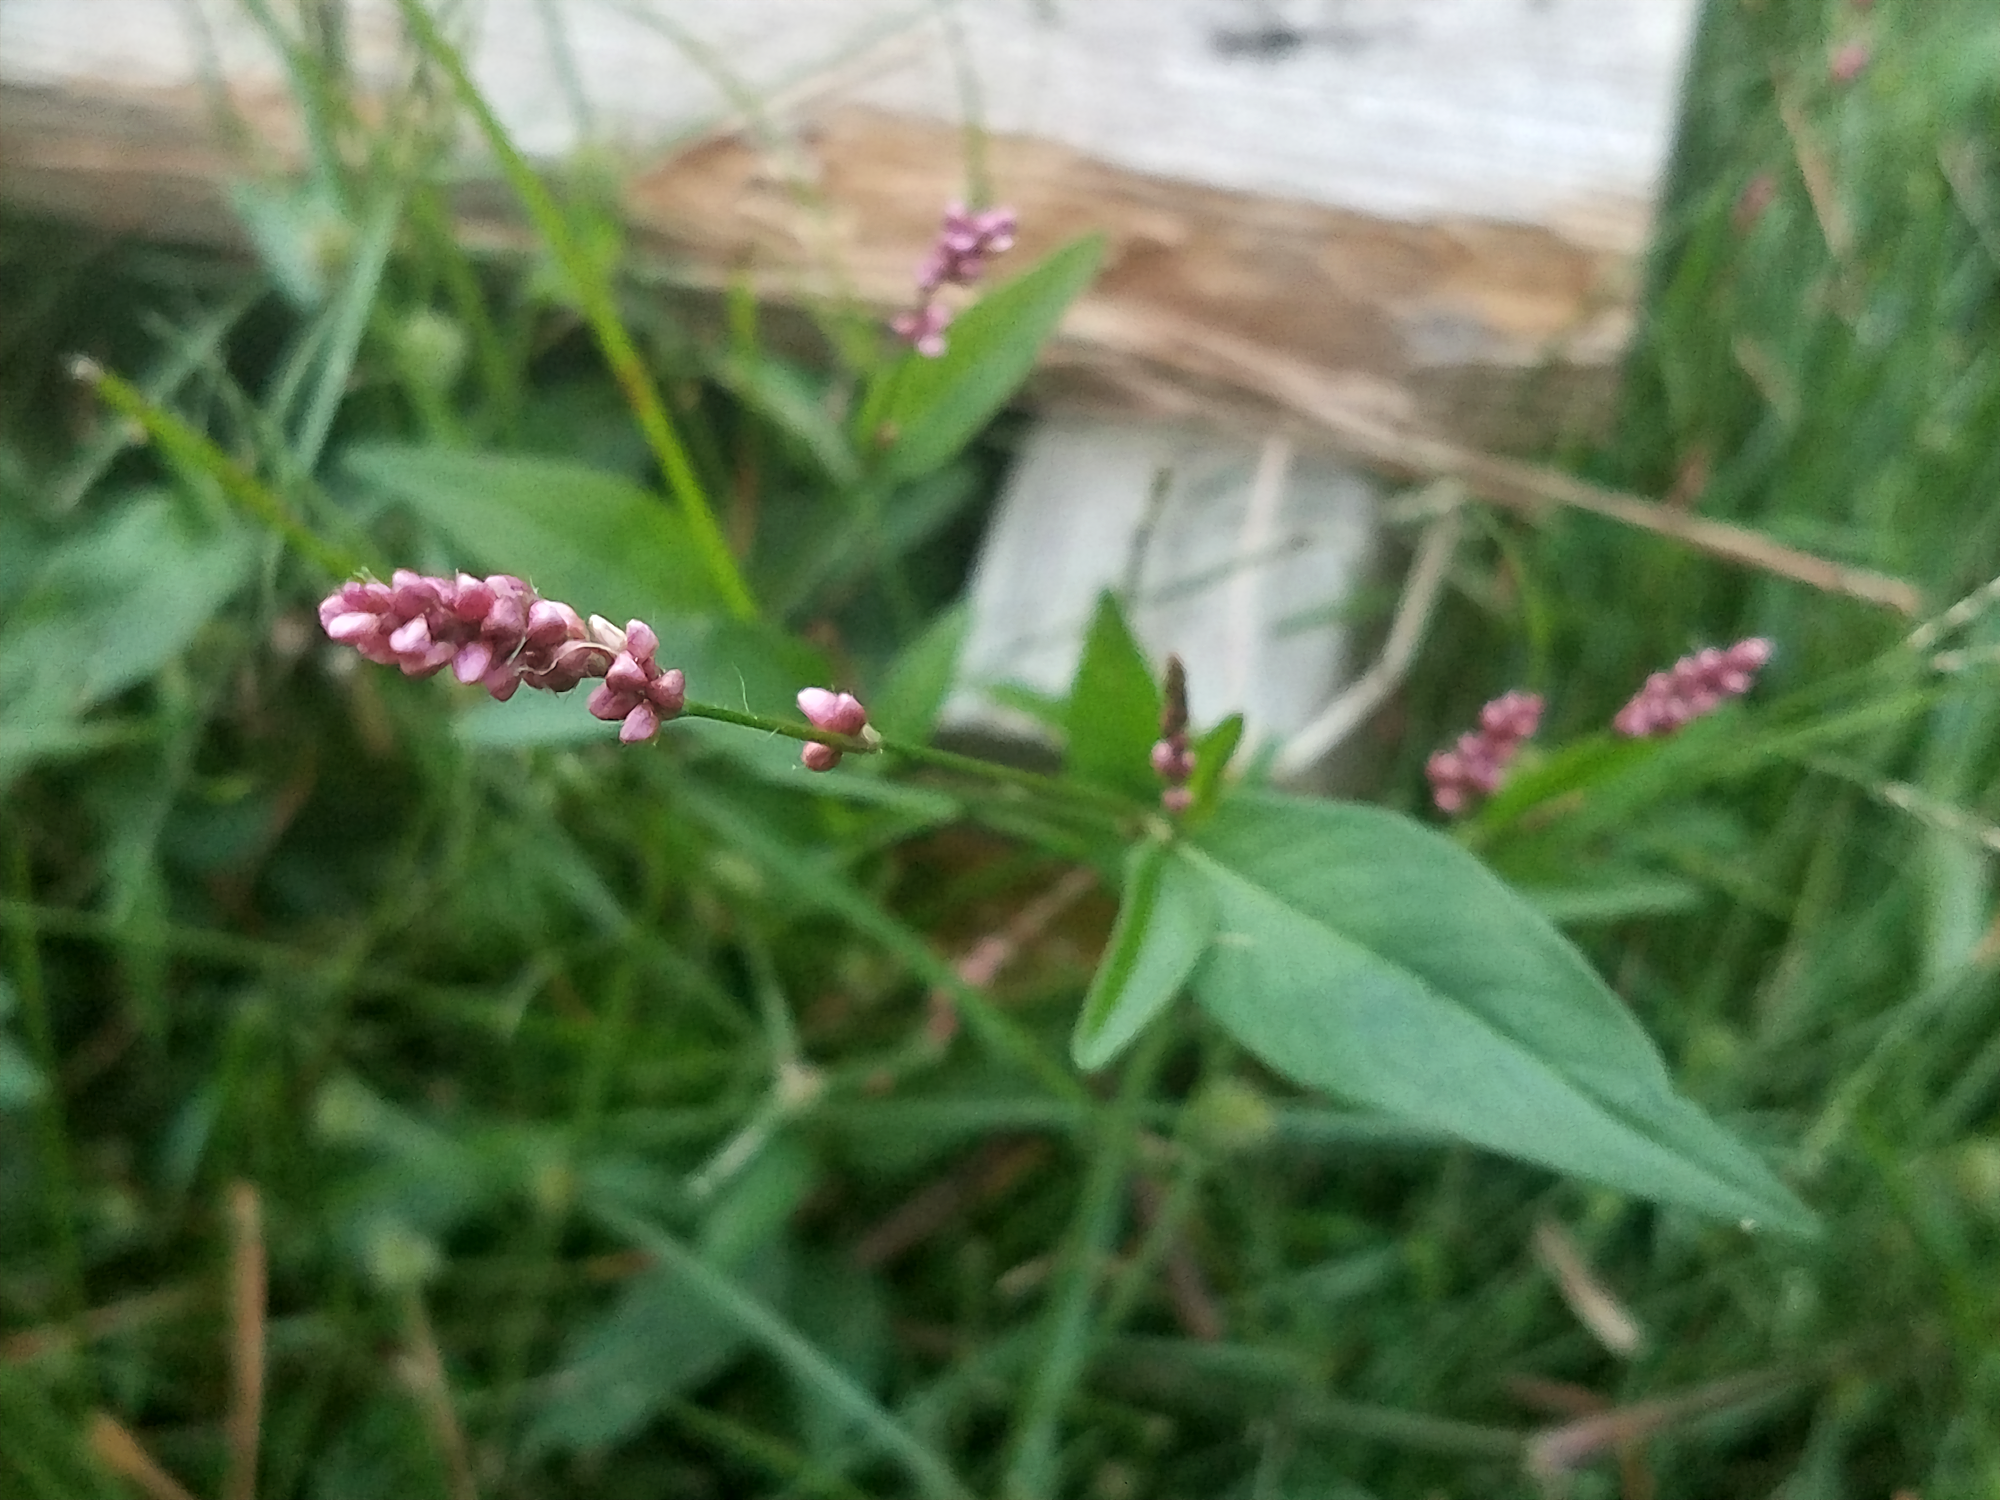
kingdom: Plantae
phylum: Tracheophyta
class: Magnoliopsida
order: Caryophyllales
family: Polygonaceae
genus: Persicaria
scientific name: Persicaria longiseta
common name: Bristly lady's-thumb
